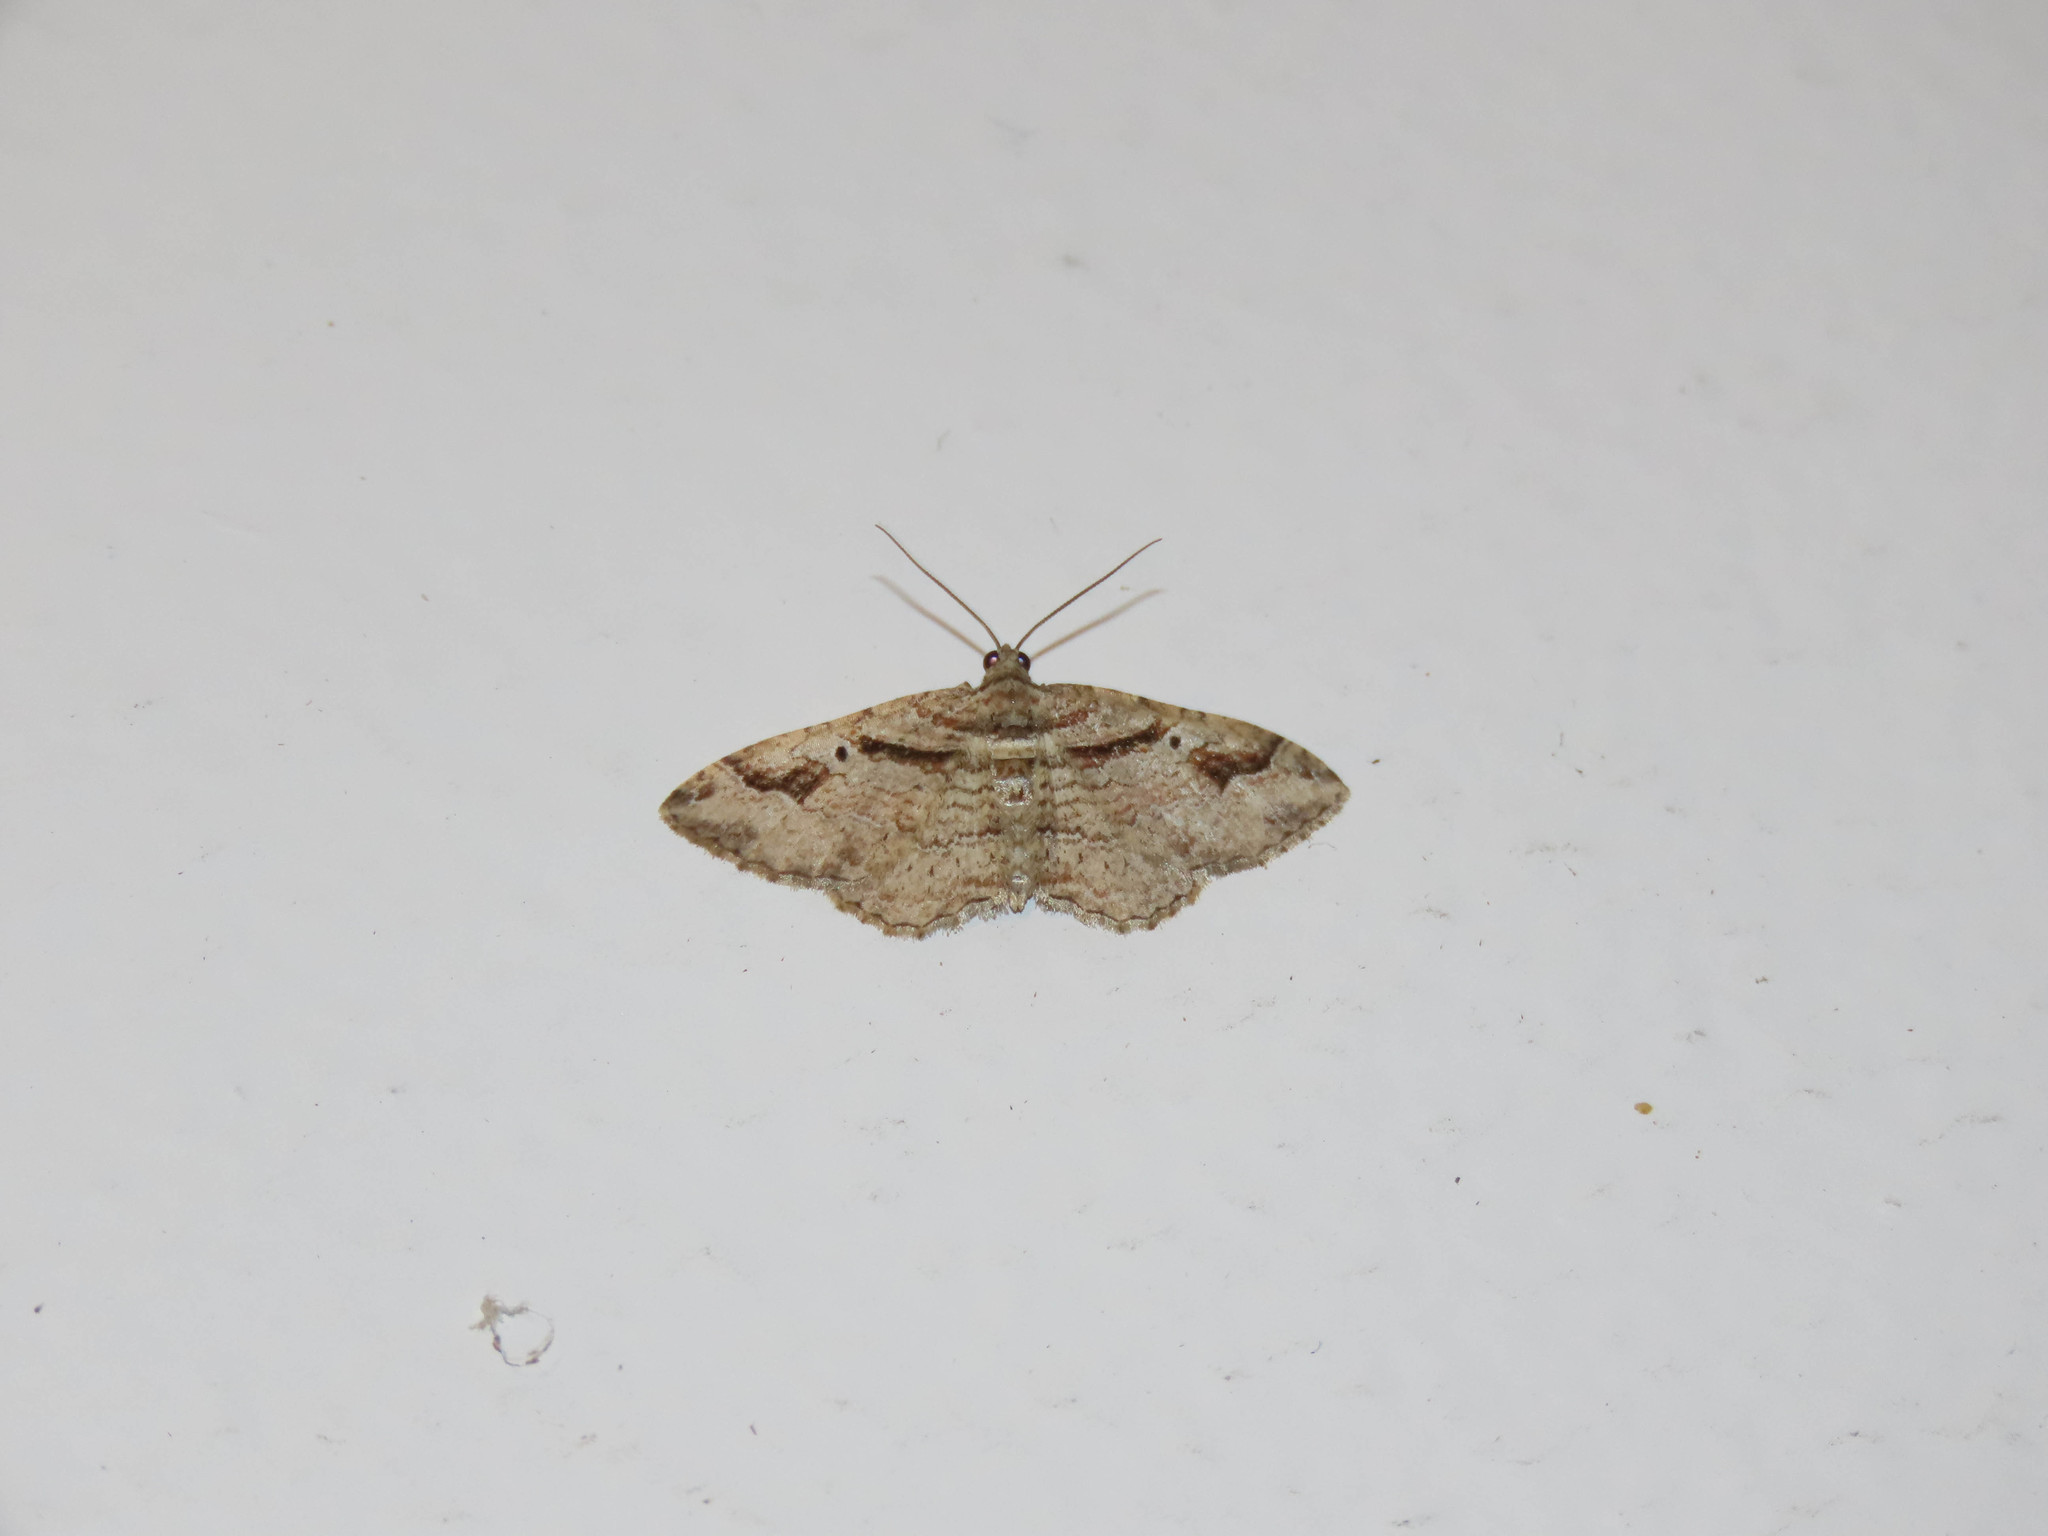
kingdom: Animalia
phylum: Arthropoda
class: Insecta
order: Lepidoptera
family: Geometridae
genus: Costaconvexa
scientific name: Costaconvexa centrostrigaria
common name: Bent-line carpet
